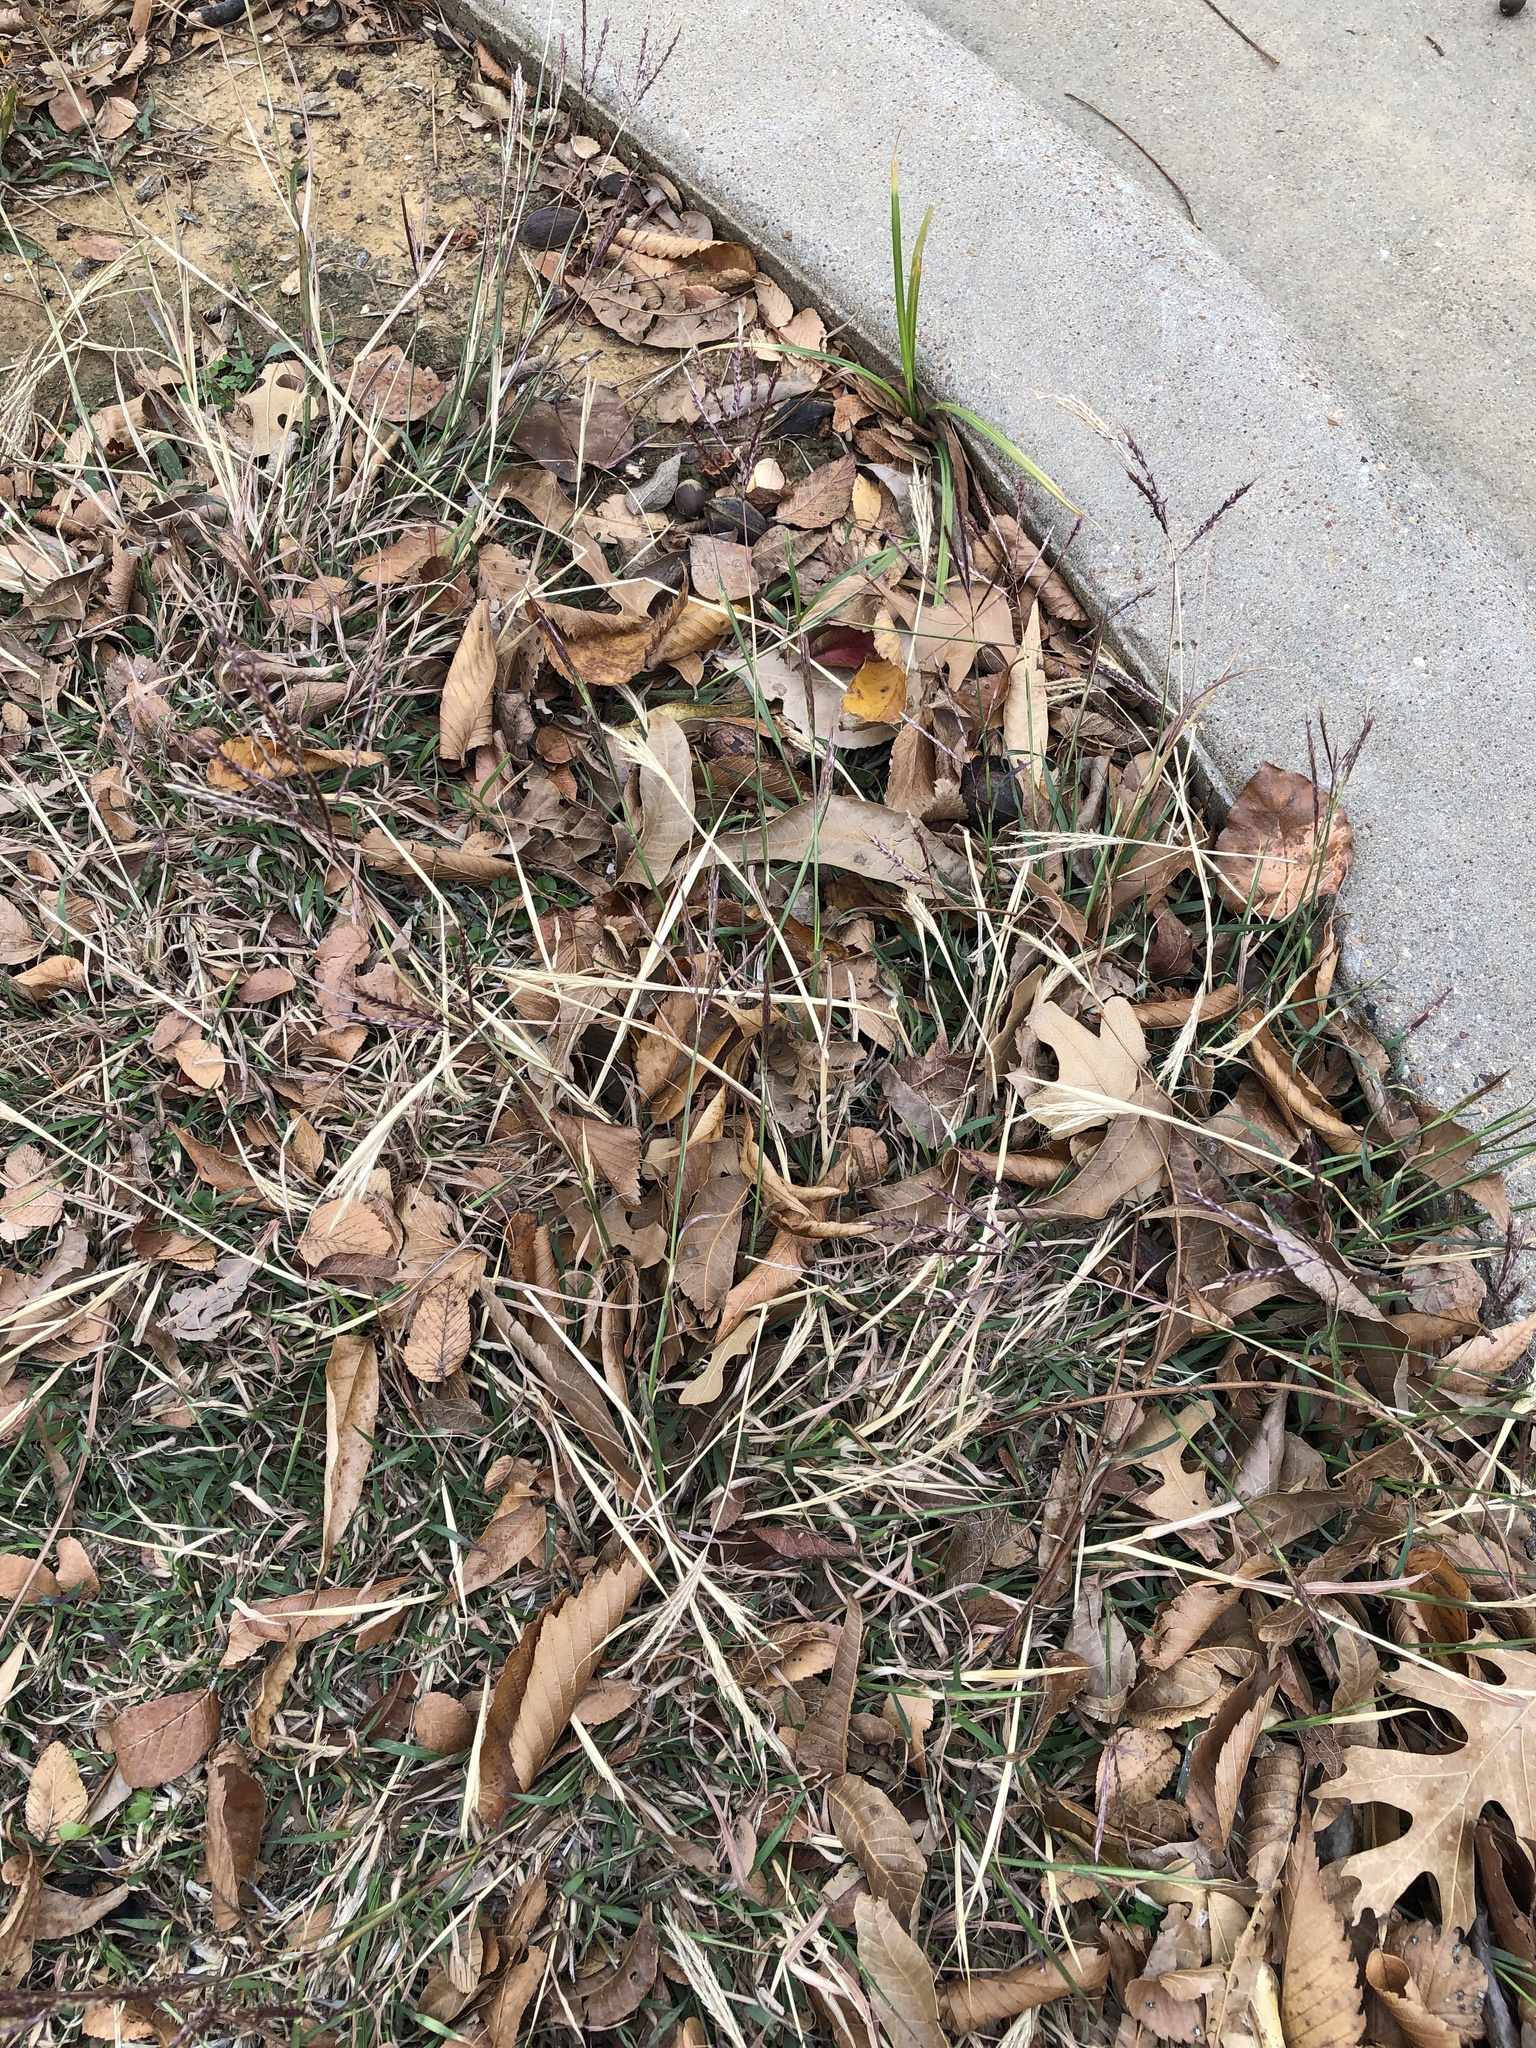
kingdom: Plantae
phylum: Tracheophyta
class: Liliopsida
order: Poales
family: Poaceae
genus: Bothriochloa
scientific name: Bothriochloa ischaemum
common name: Yellow bluestem
